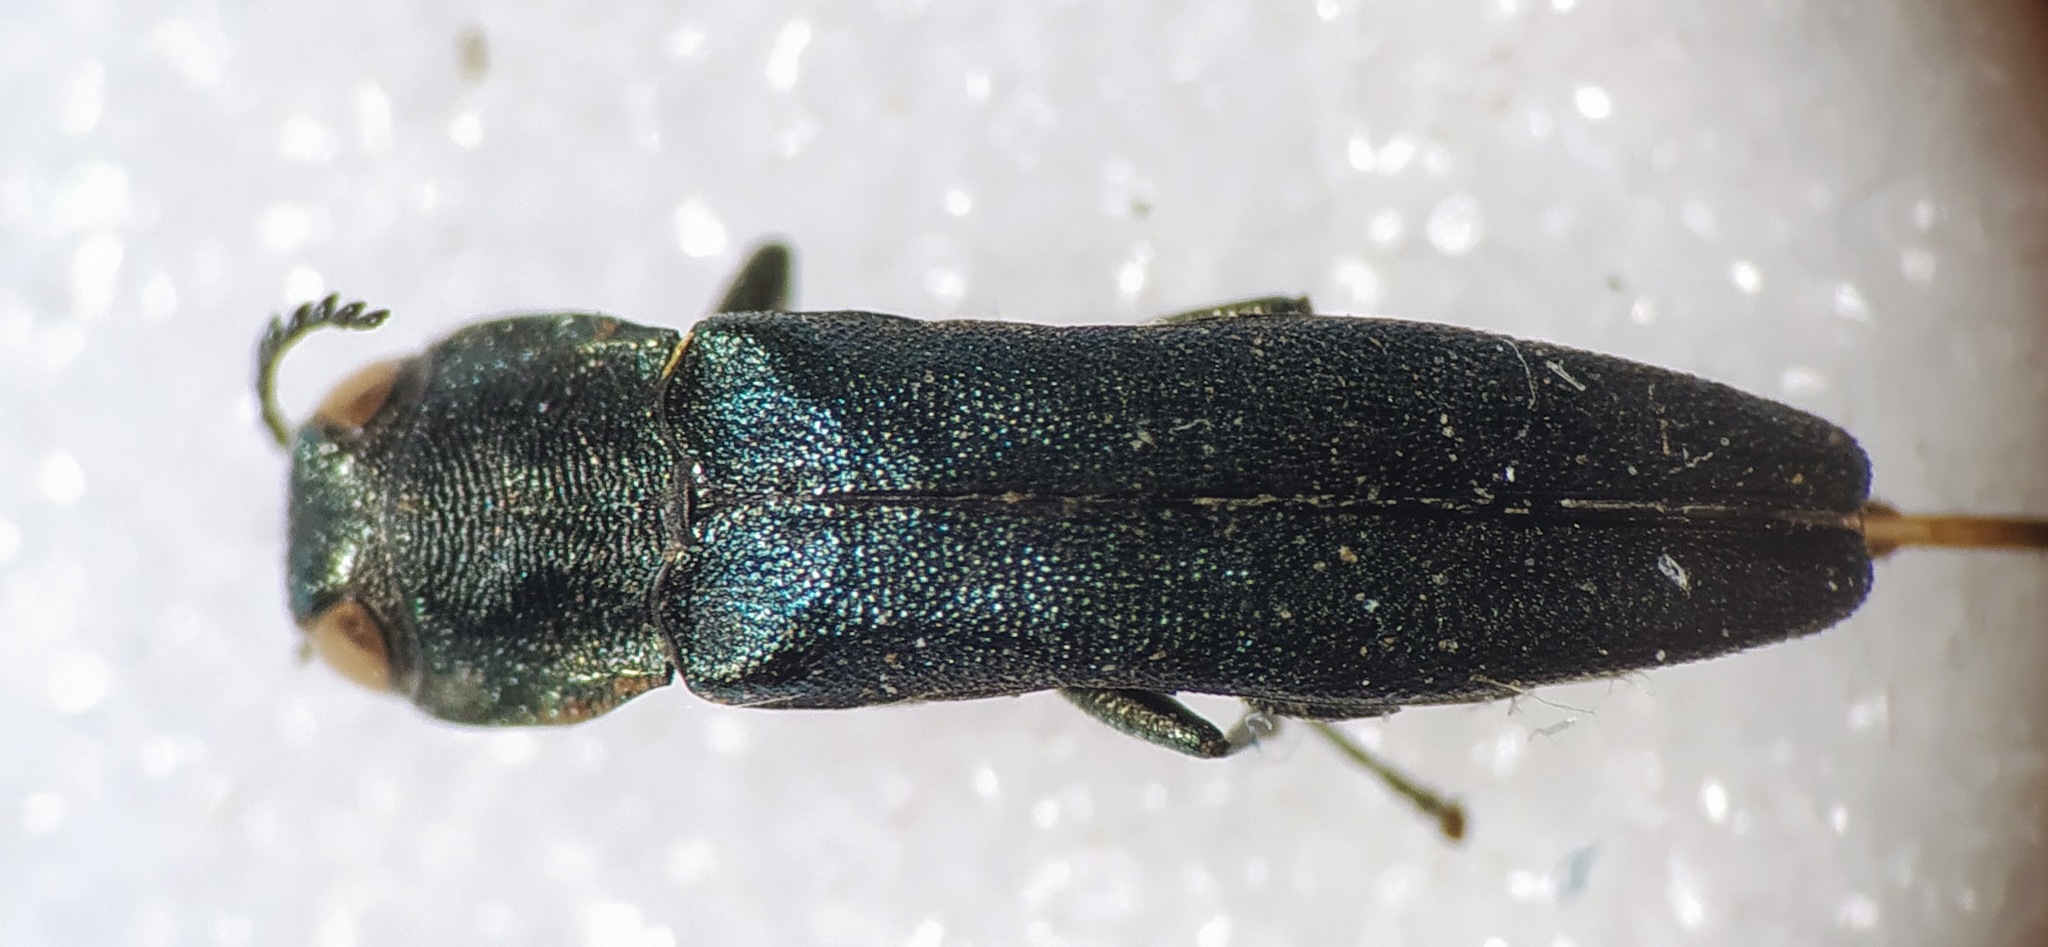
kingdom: Animalia
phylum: Arthropoda
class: Insecta
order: Coleoptera
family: Buprestidae
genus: Agrilus
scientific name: Agrilus angustulus
